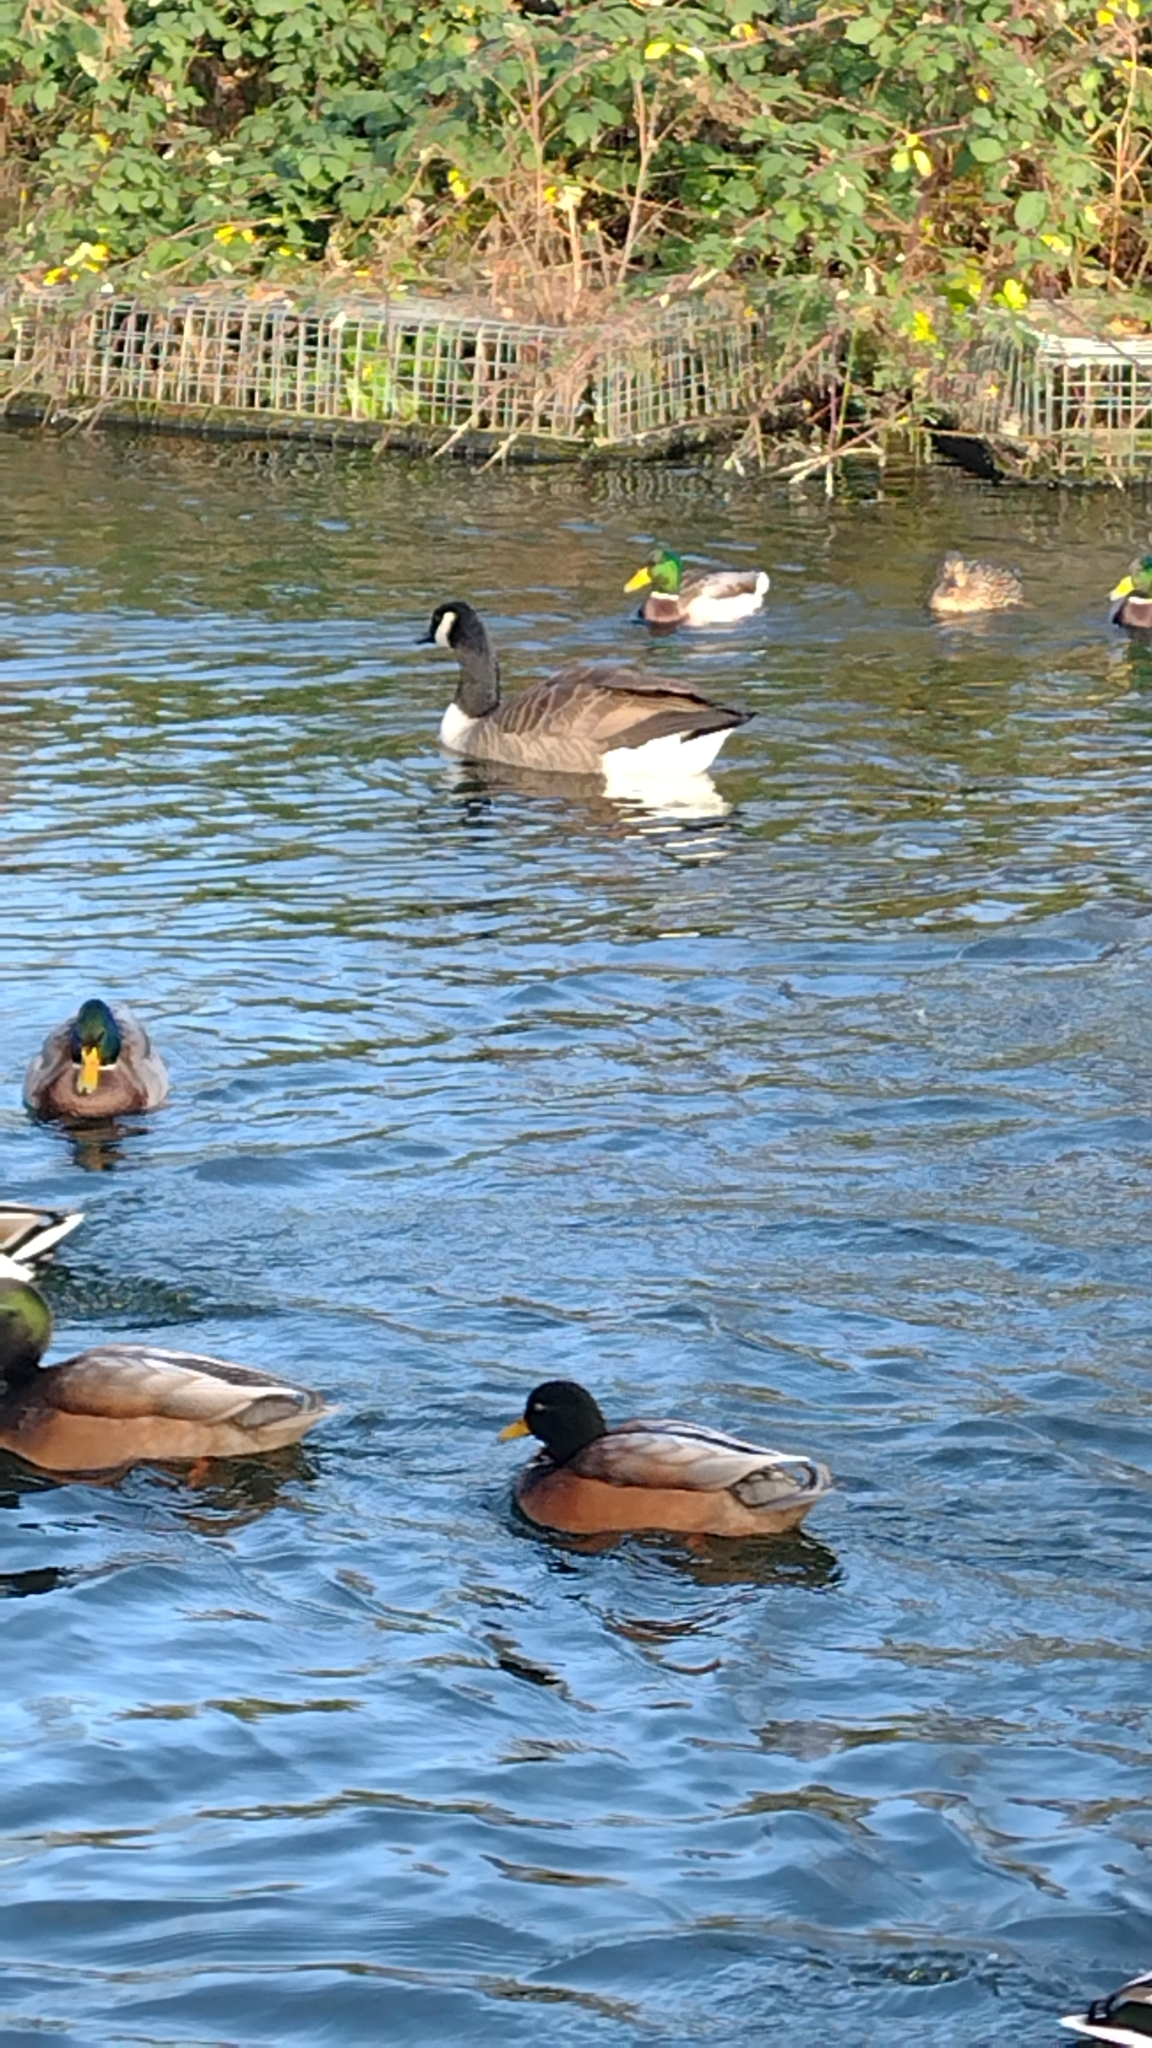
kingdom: Animalia
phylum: Chordata
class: Aves
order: Anseriformes
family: Anatidae
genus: Branta
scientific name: Branta canadensis
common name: Canada goose
